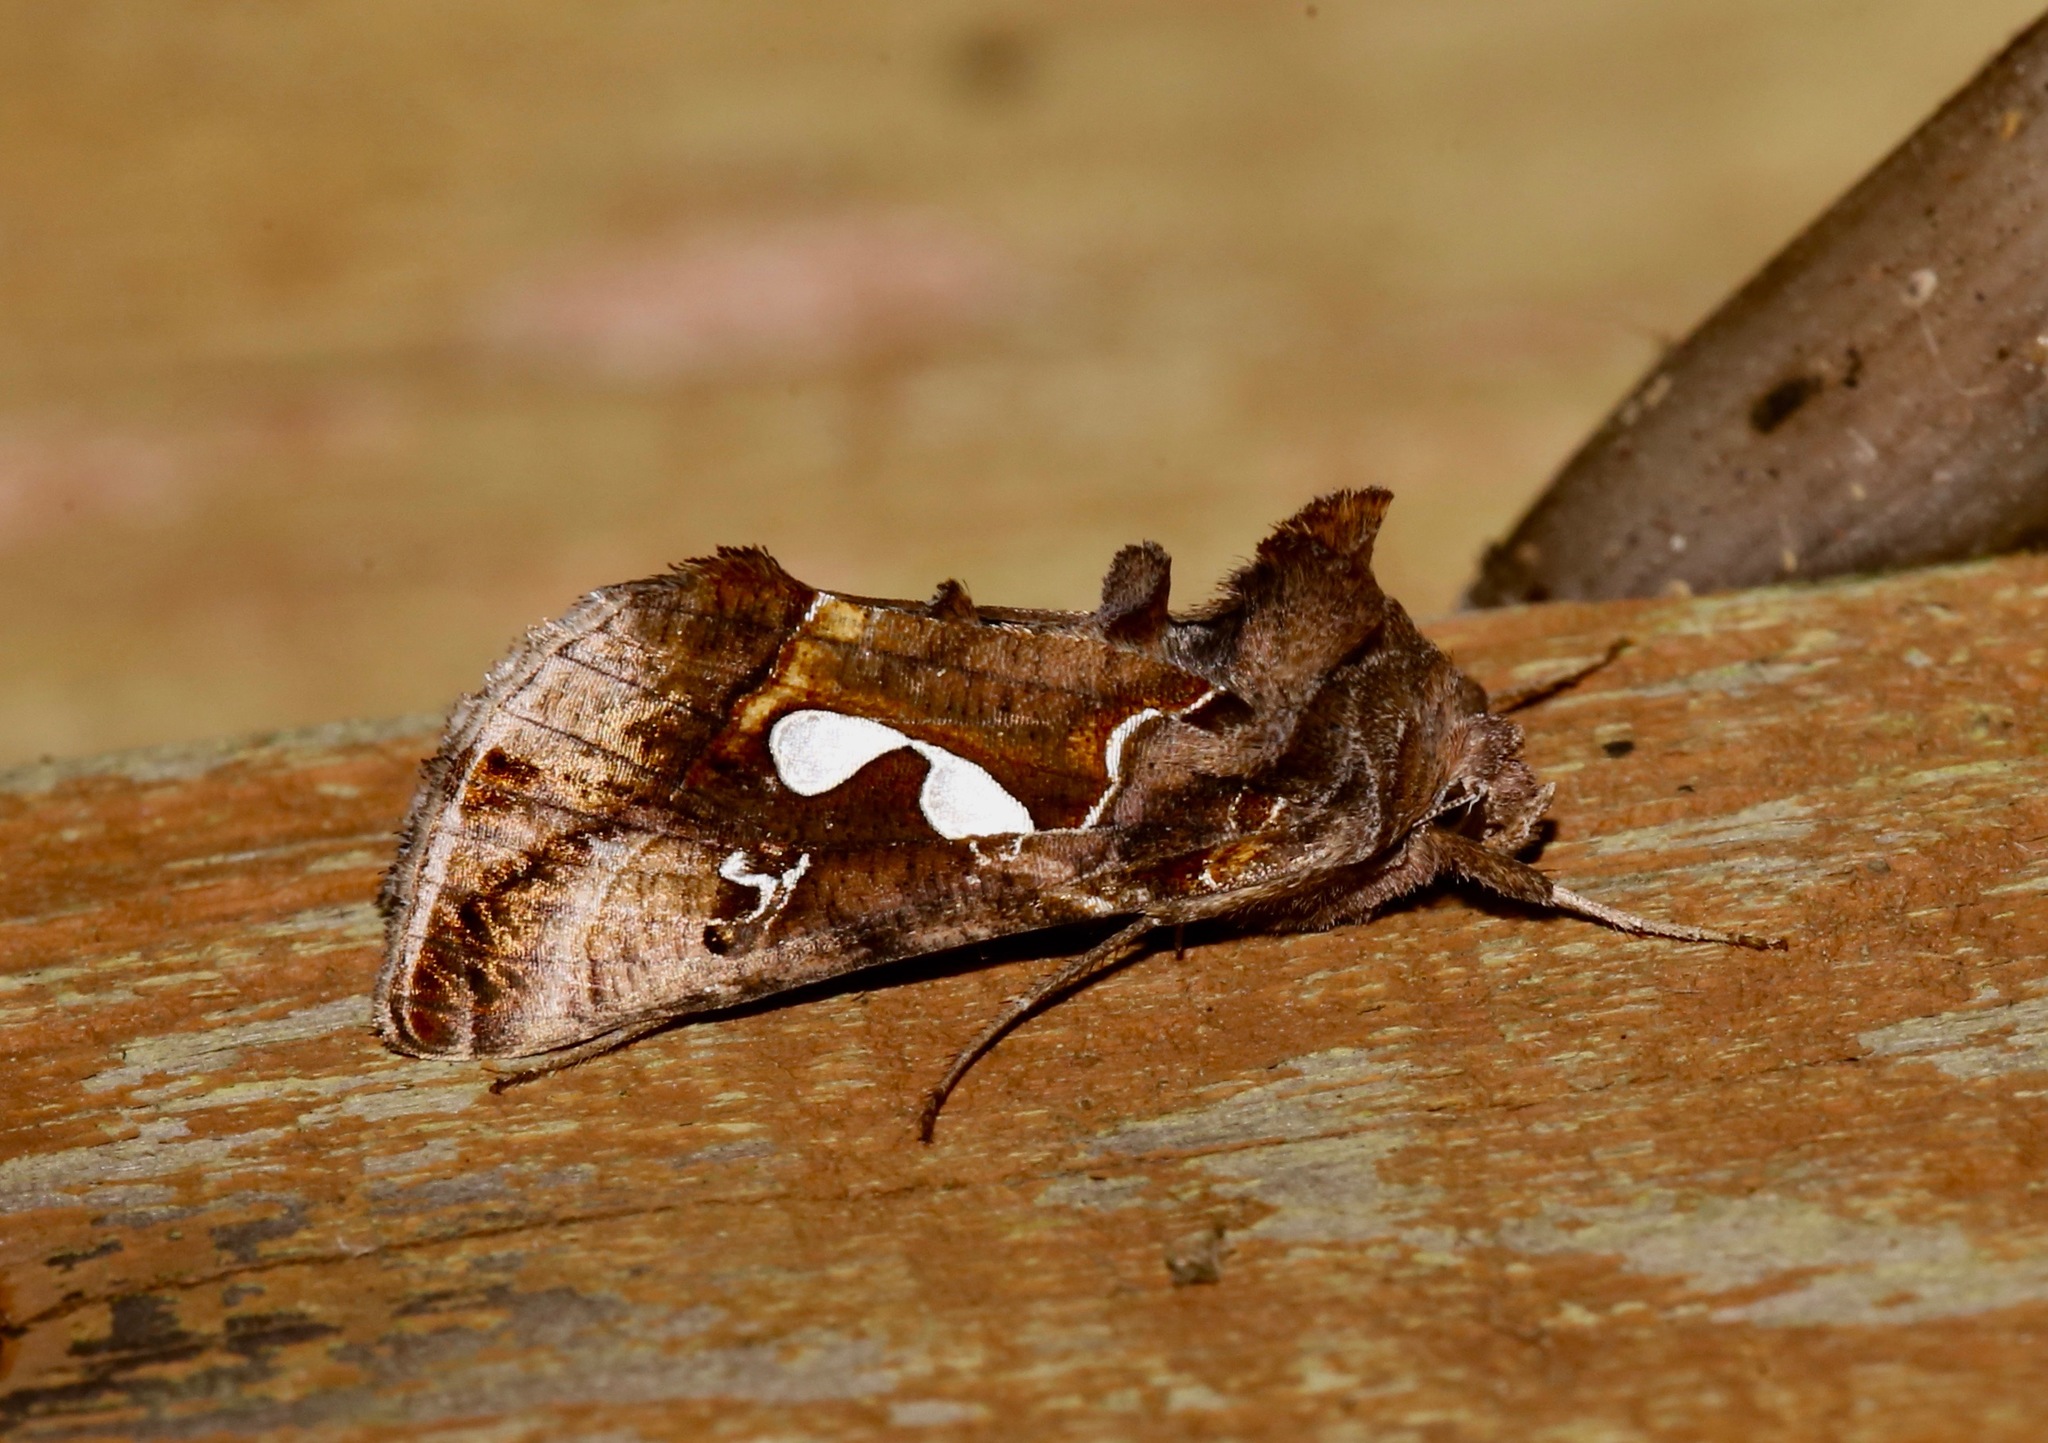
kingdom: Animalia
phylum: Arthropoda
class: Insecta
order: Lepidoptera
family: Noctuidae
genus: Megalographa
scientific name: Megalographa biloba
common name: Cutworm
